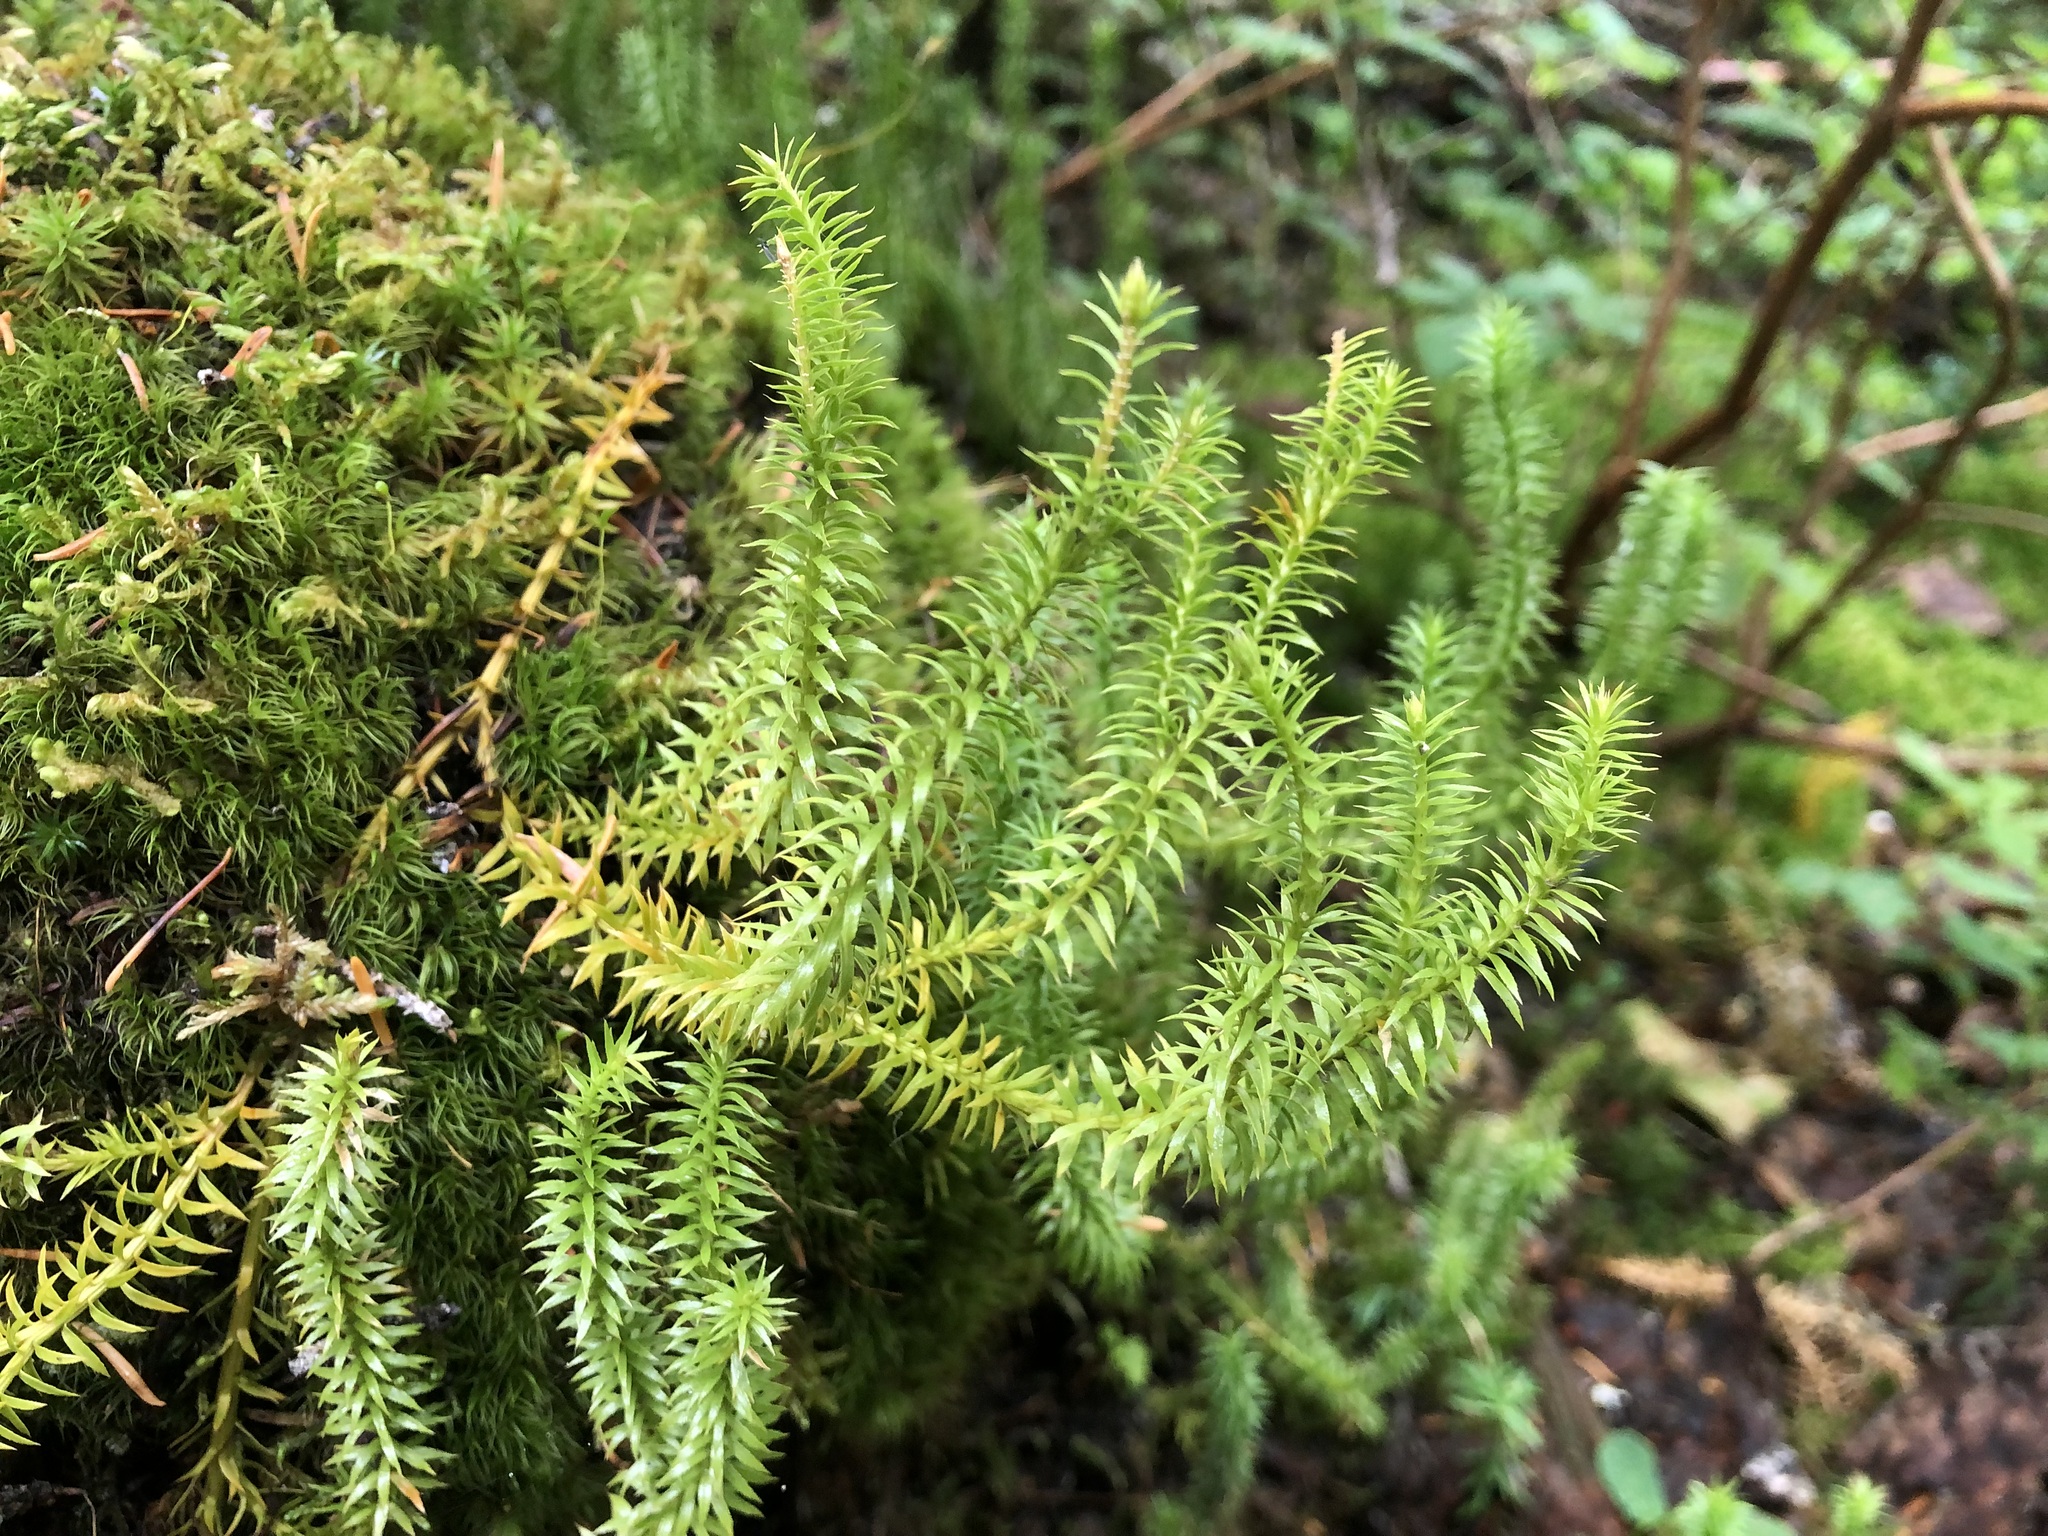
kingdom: Plantae
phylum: Tracheophyta
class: Lycopodiopsida
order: Lycopodiales
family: Lycopodiaceae
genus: Spinulum
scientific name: Spinulum annotinum
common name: Interrupted club-moss
